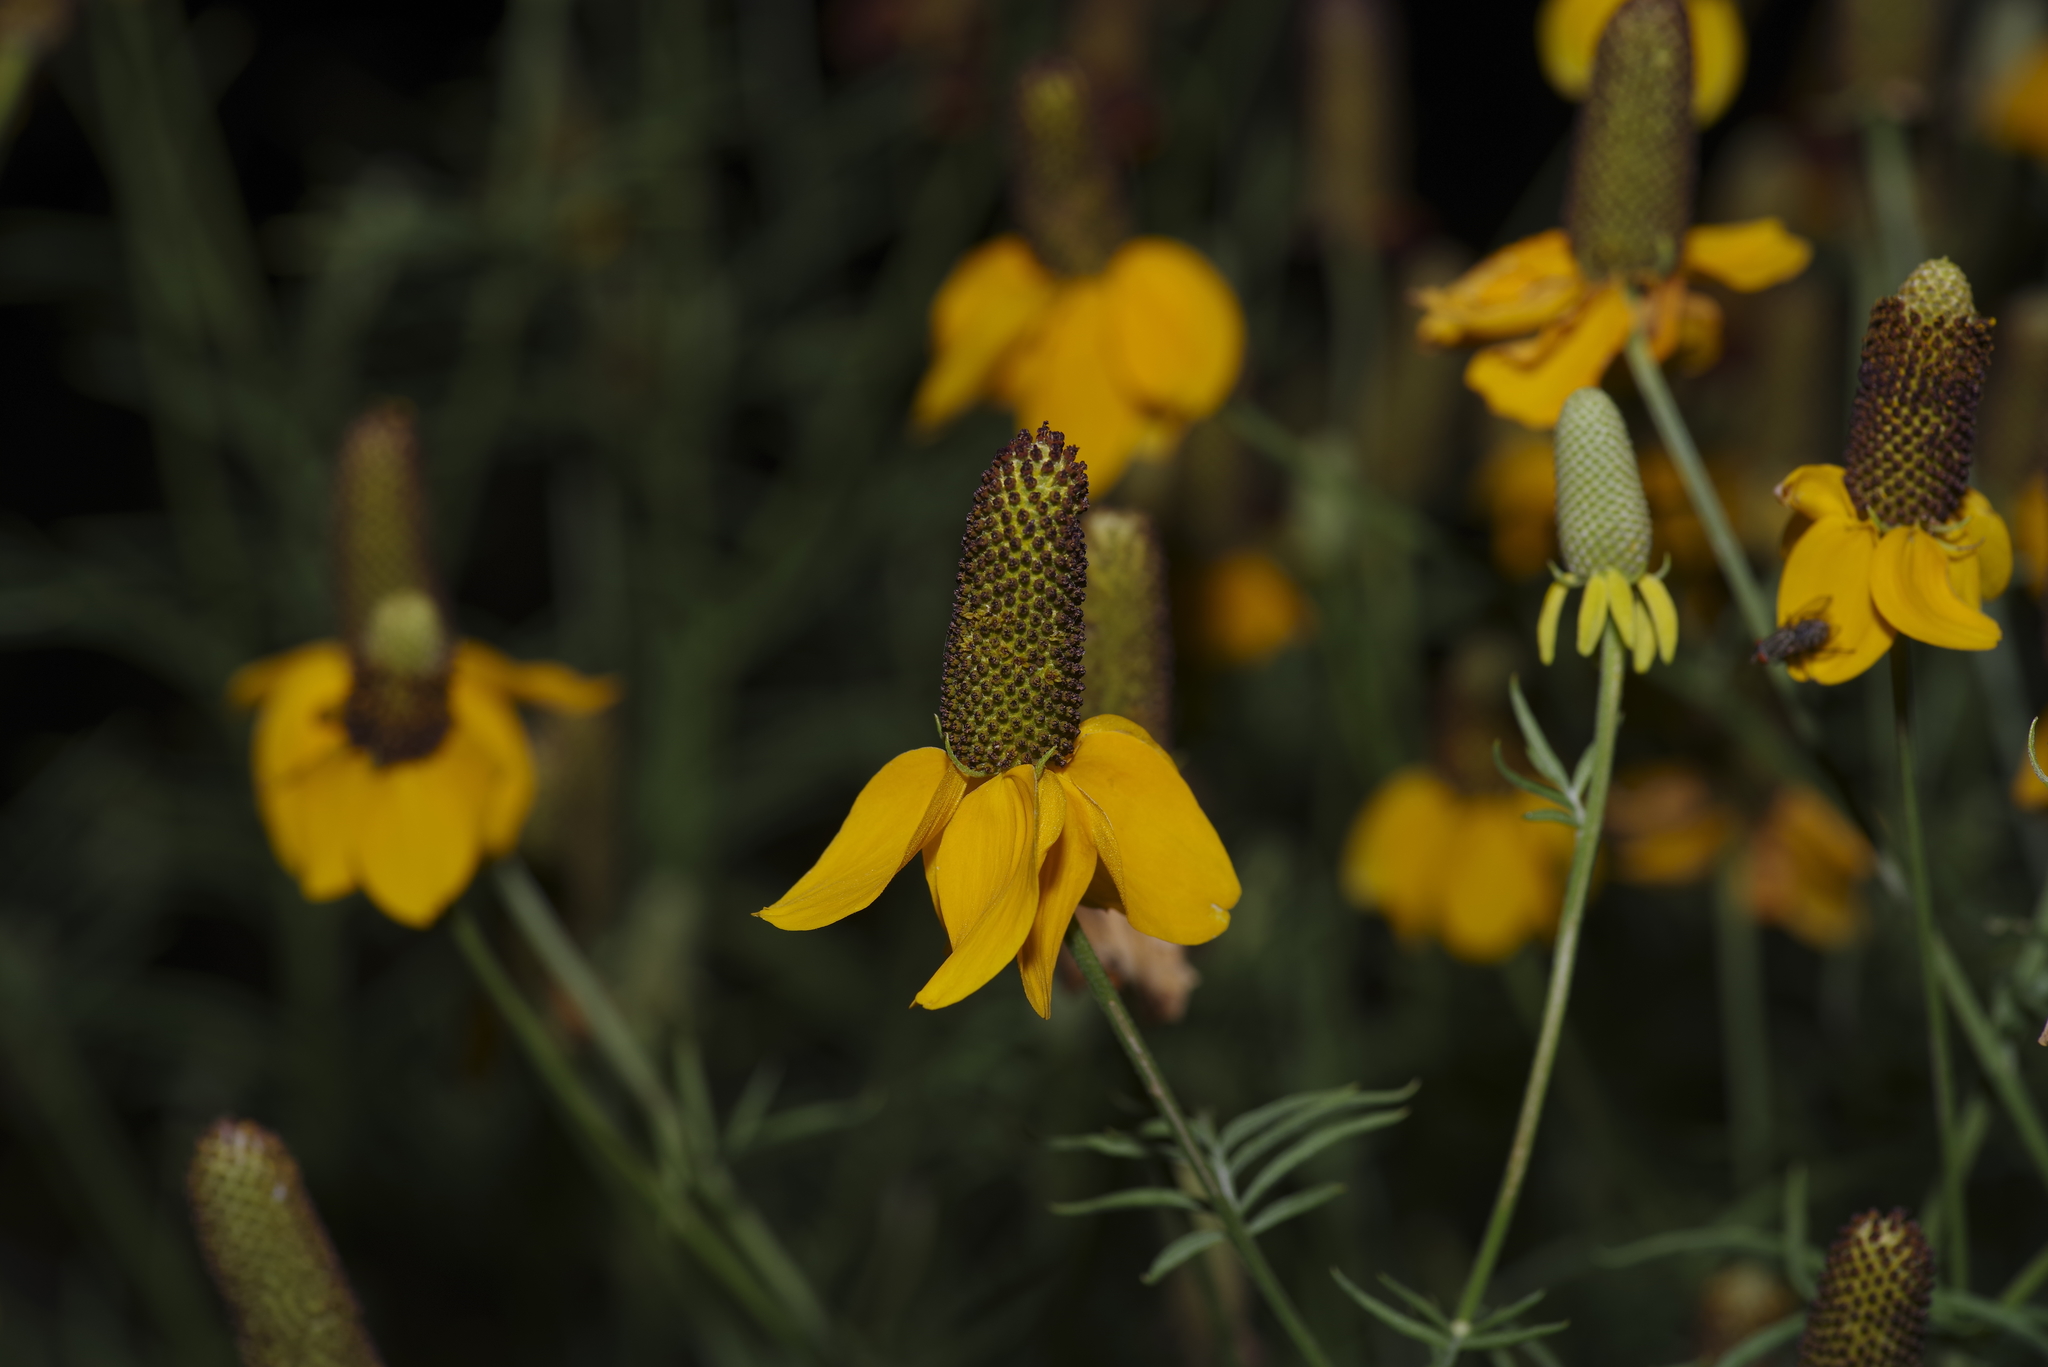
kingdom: Plantae
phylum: Tracheophyta
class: Magnoliopsida
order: Asterales
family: Asteraceae
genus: Ratibida
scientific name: Ratibida columnifera
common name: Prairie coneflower
